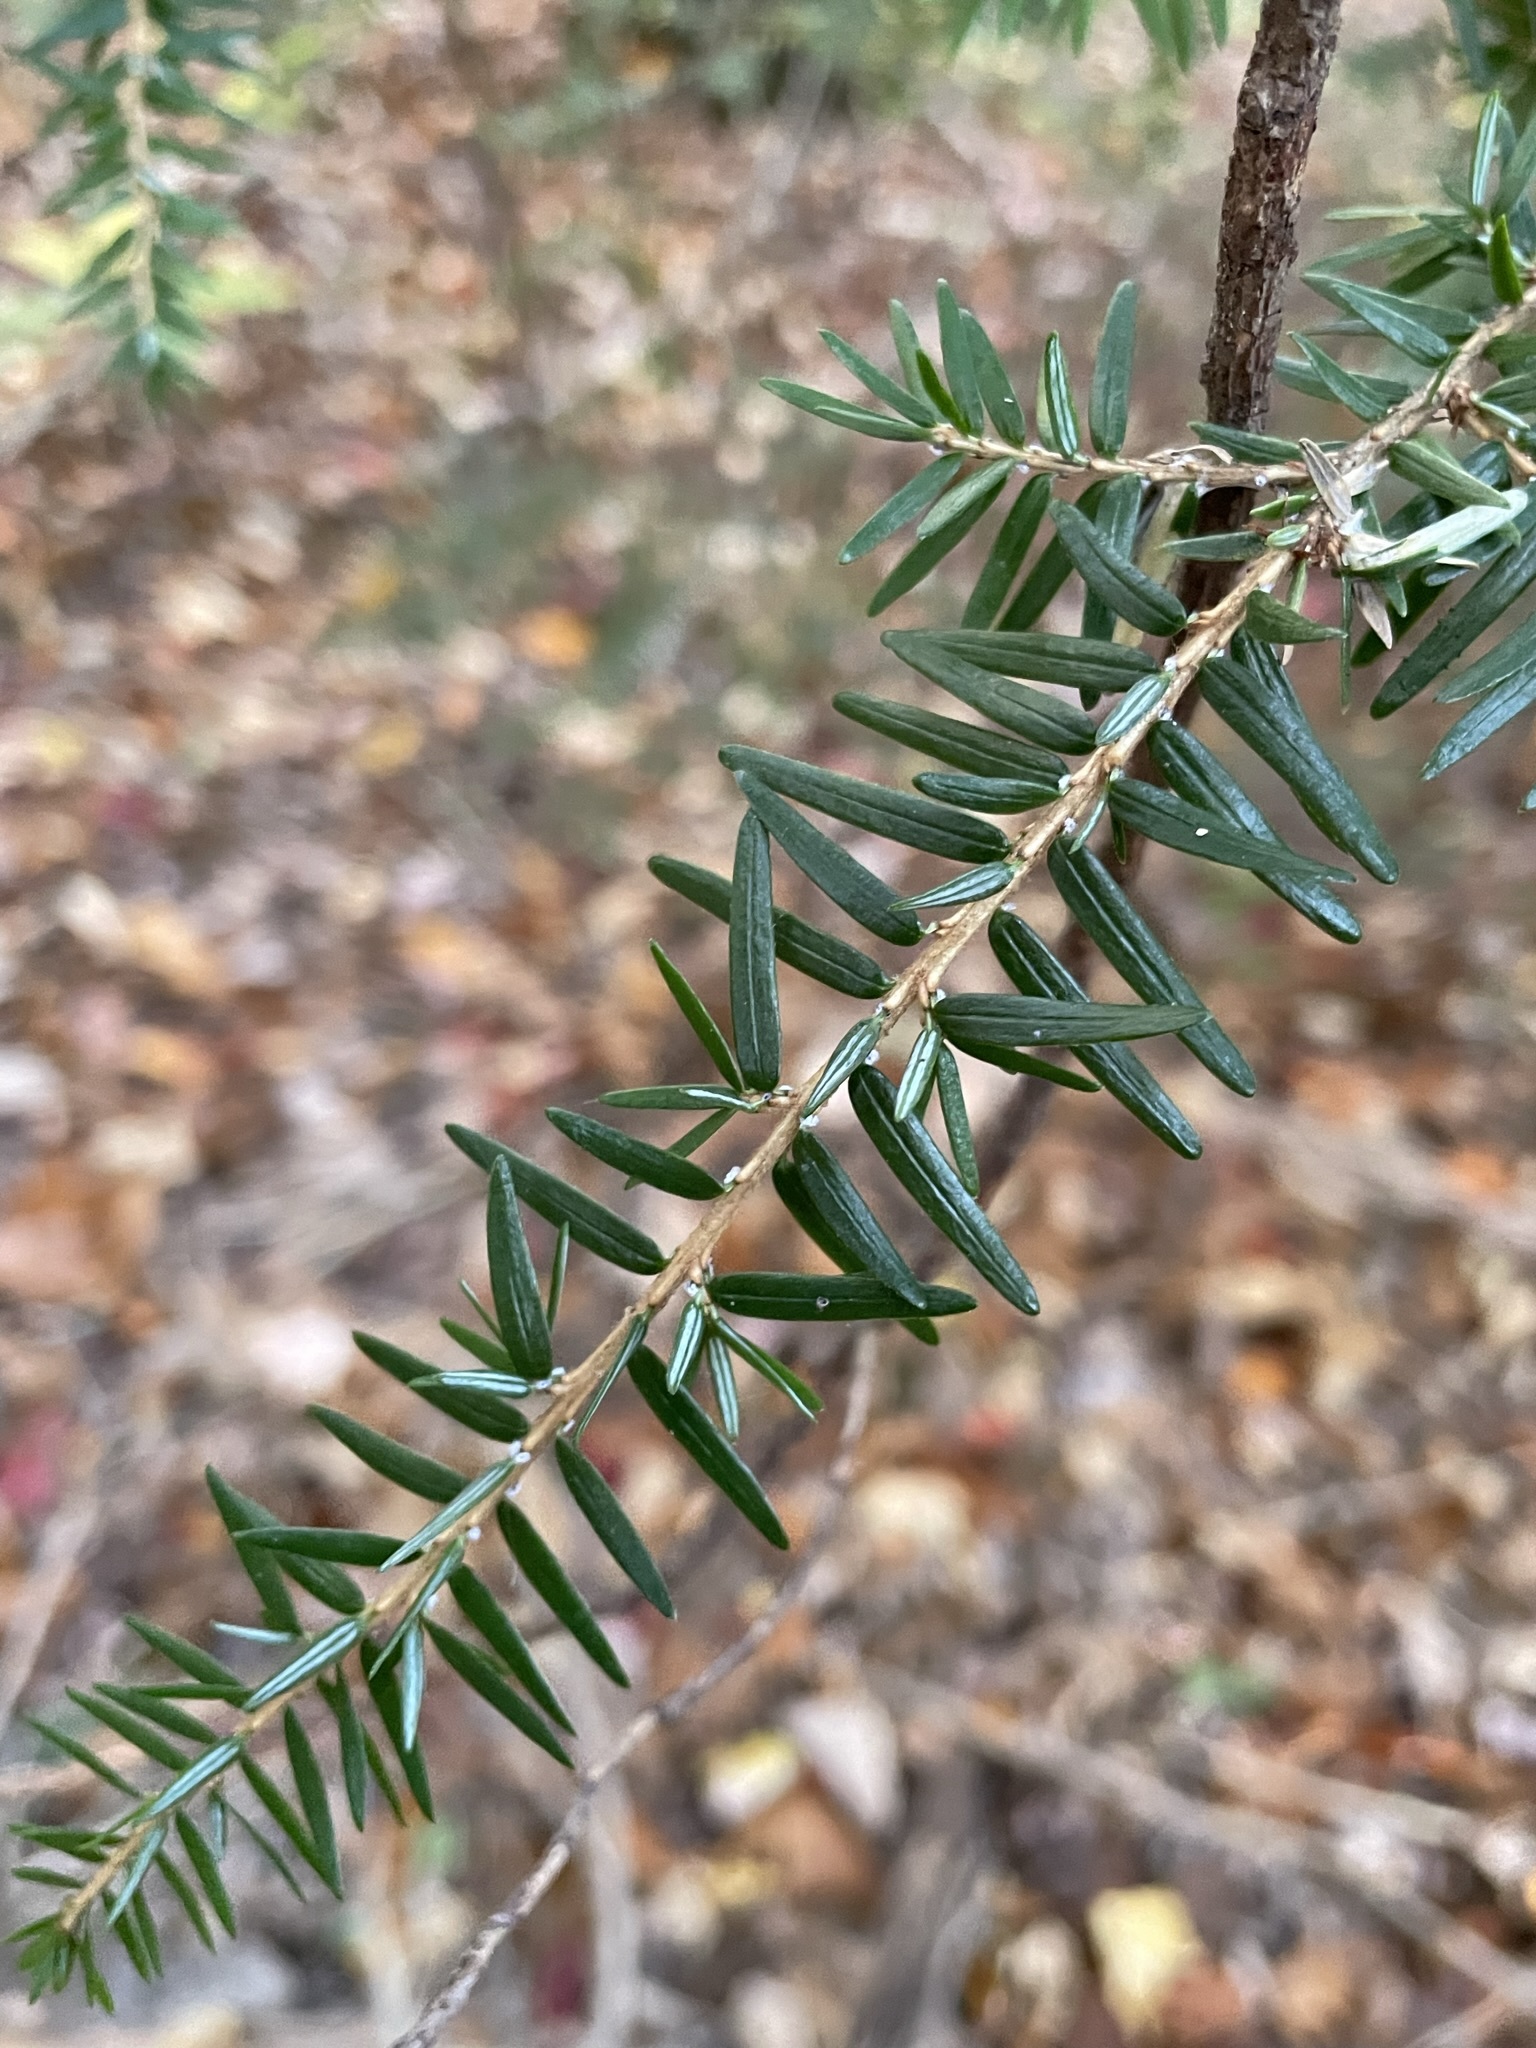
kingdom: Plantae
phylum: Tracheophyta
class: Pinopsida
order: Pinales
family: Pinaceae
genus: Tsuga
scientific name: Tsuga canadensis
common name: Eastern hemlock
